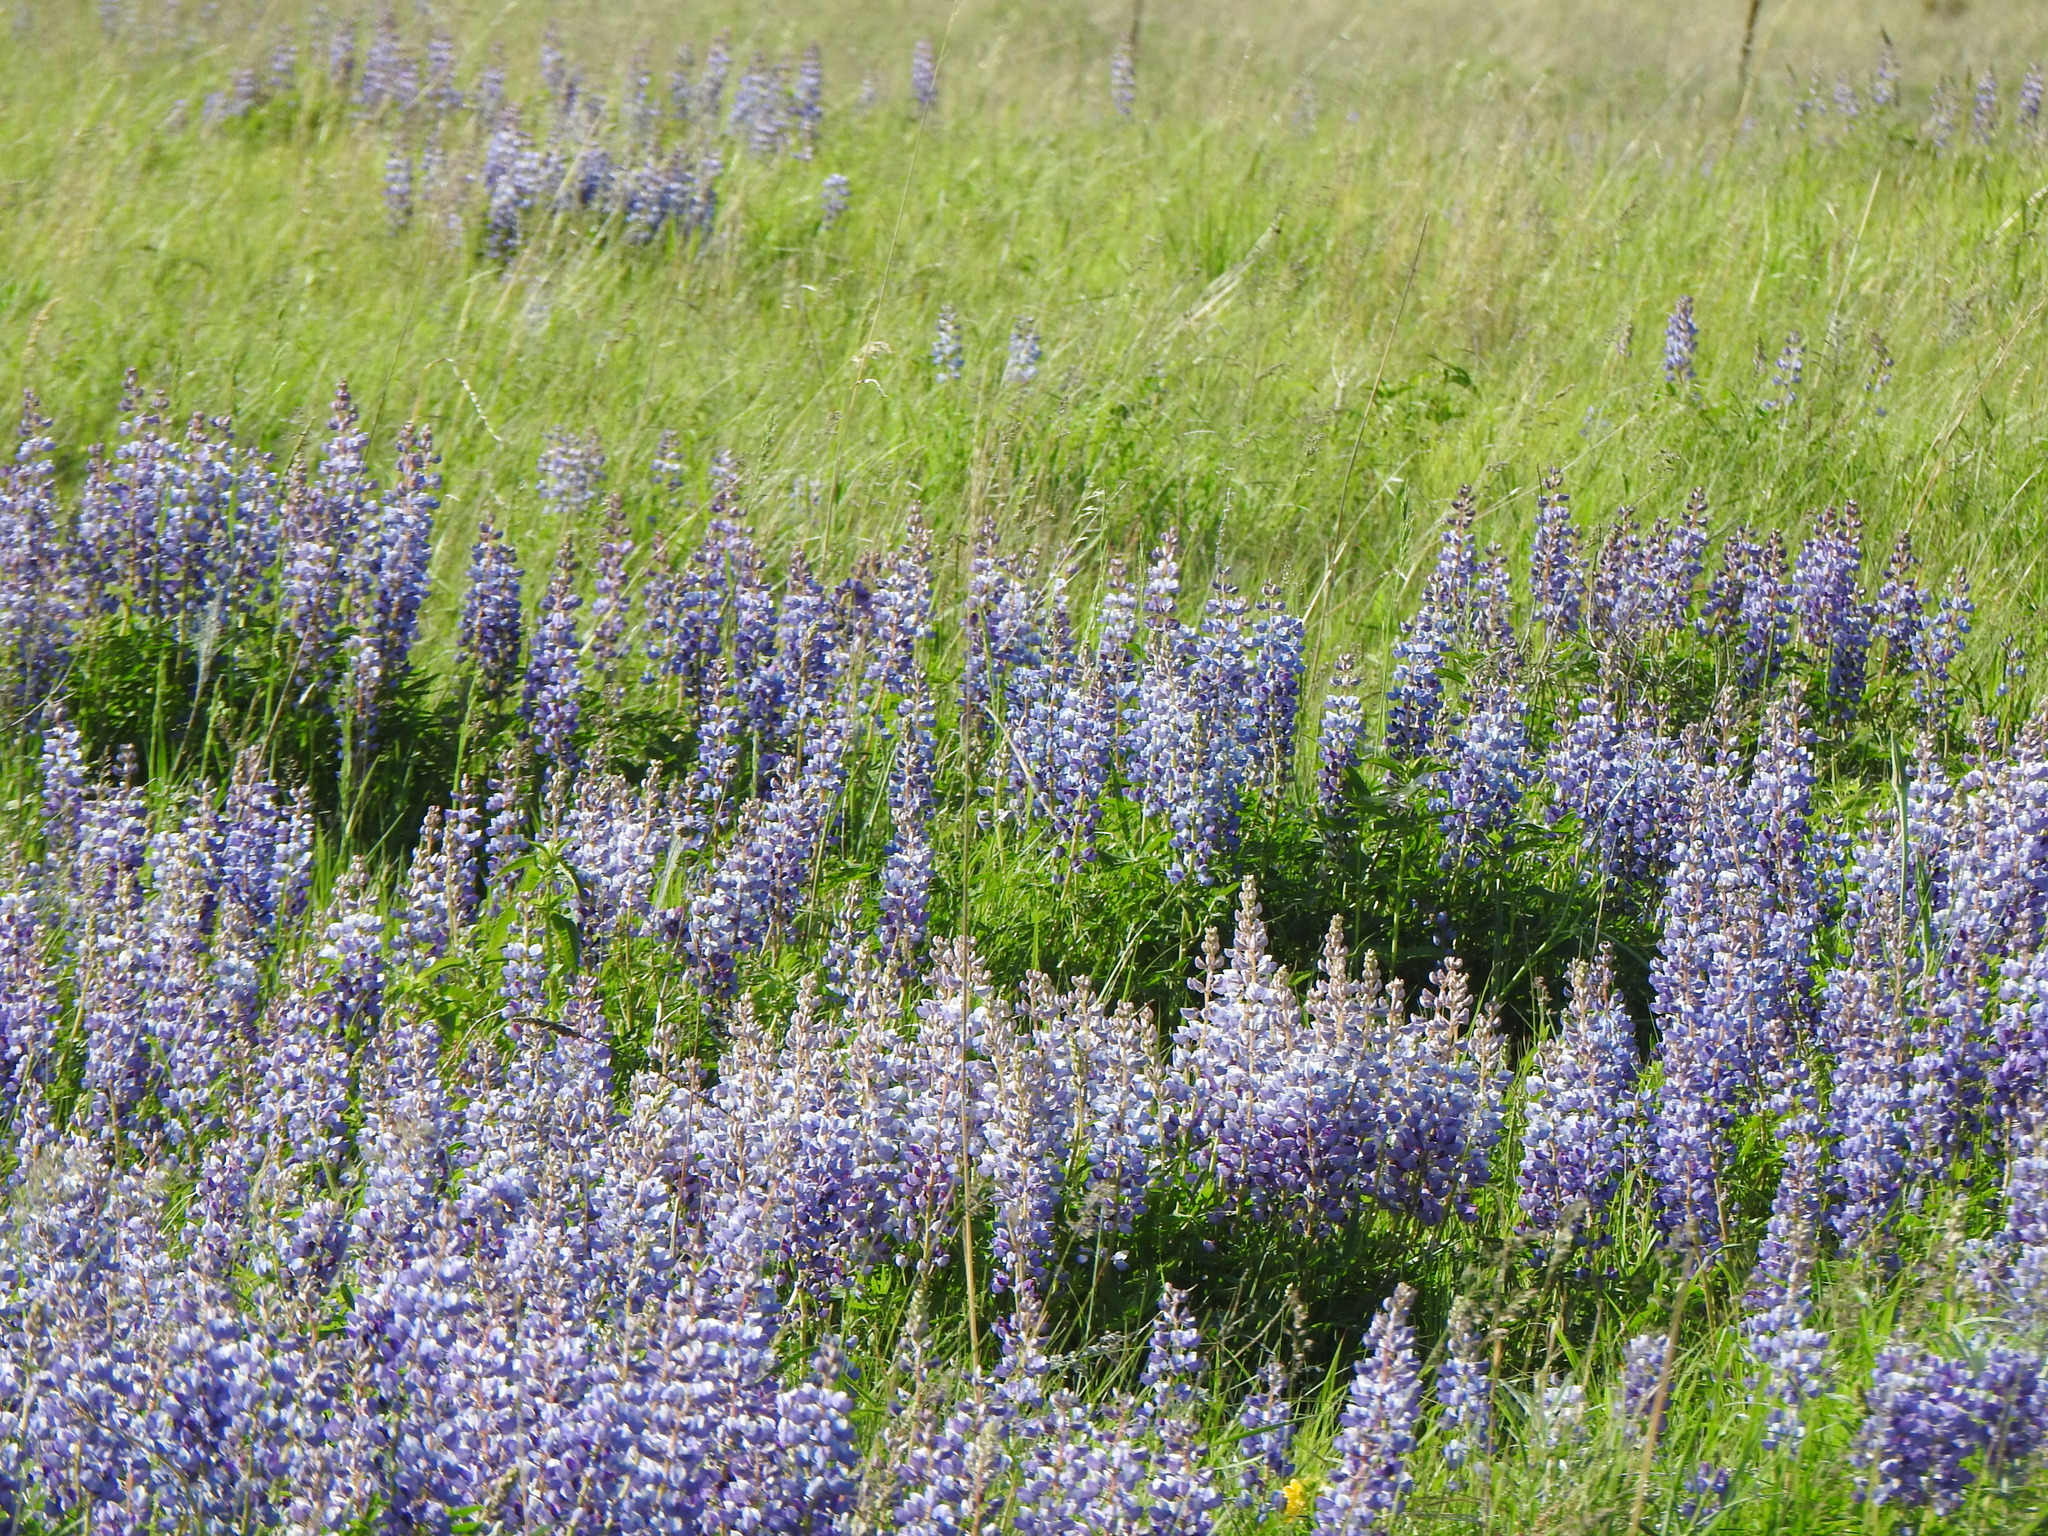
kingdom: Plantae
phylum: Tracheophyta
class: Magnoliopsida
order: Fabales
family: Fabaceae
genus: Lupinus
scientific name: Lupinus perennis
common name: Sundial lupine
